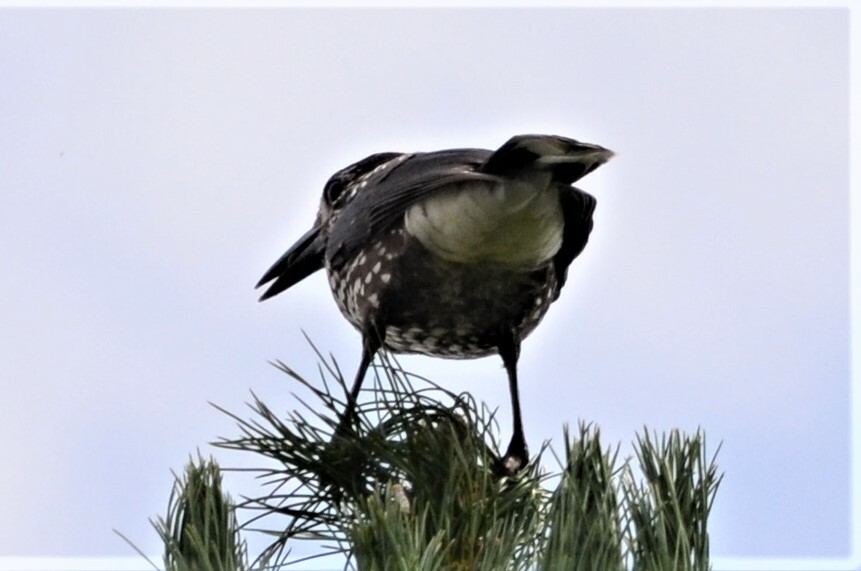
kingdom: Animalia
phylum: Chordata
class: Aves
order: Passeriformes
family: Corvidae
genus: Nucifraga
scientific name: Nucifraga caryocatactes
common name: Spotted nutcracker
